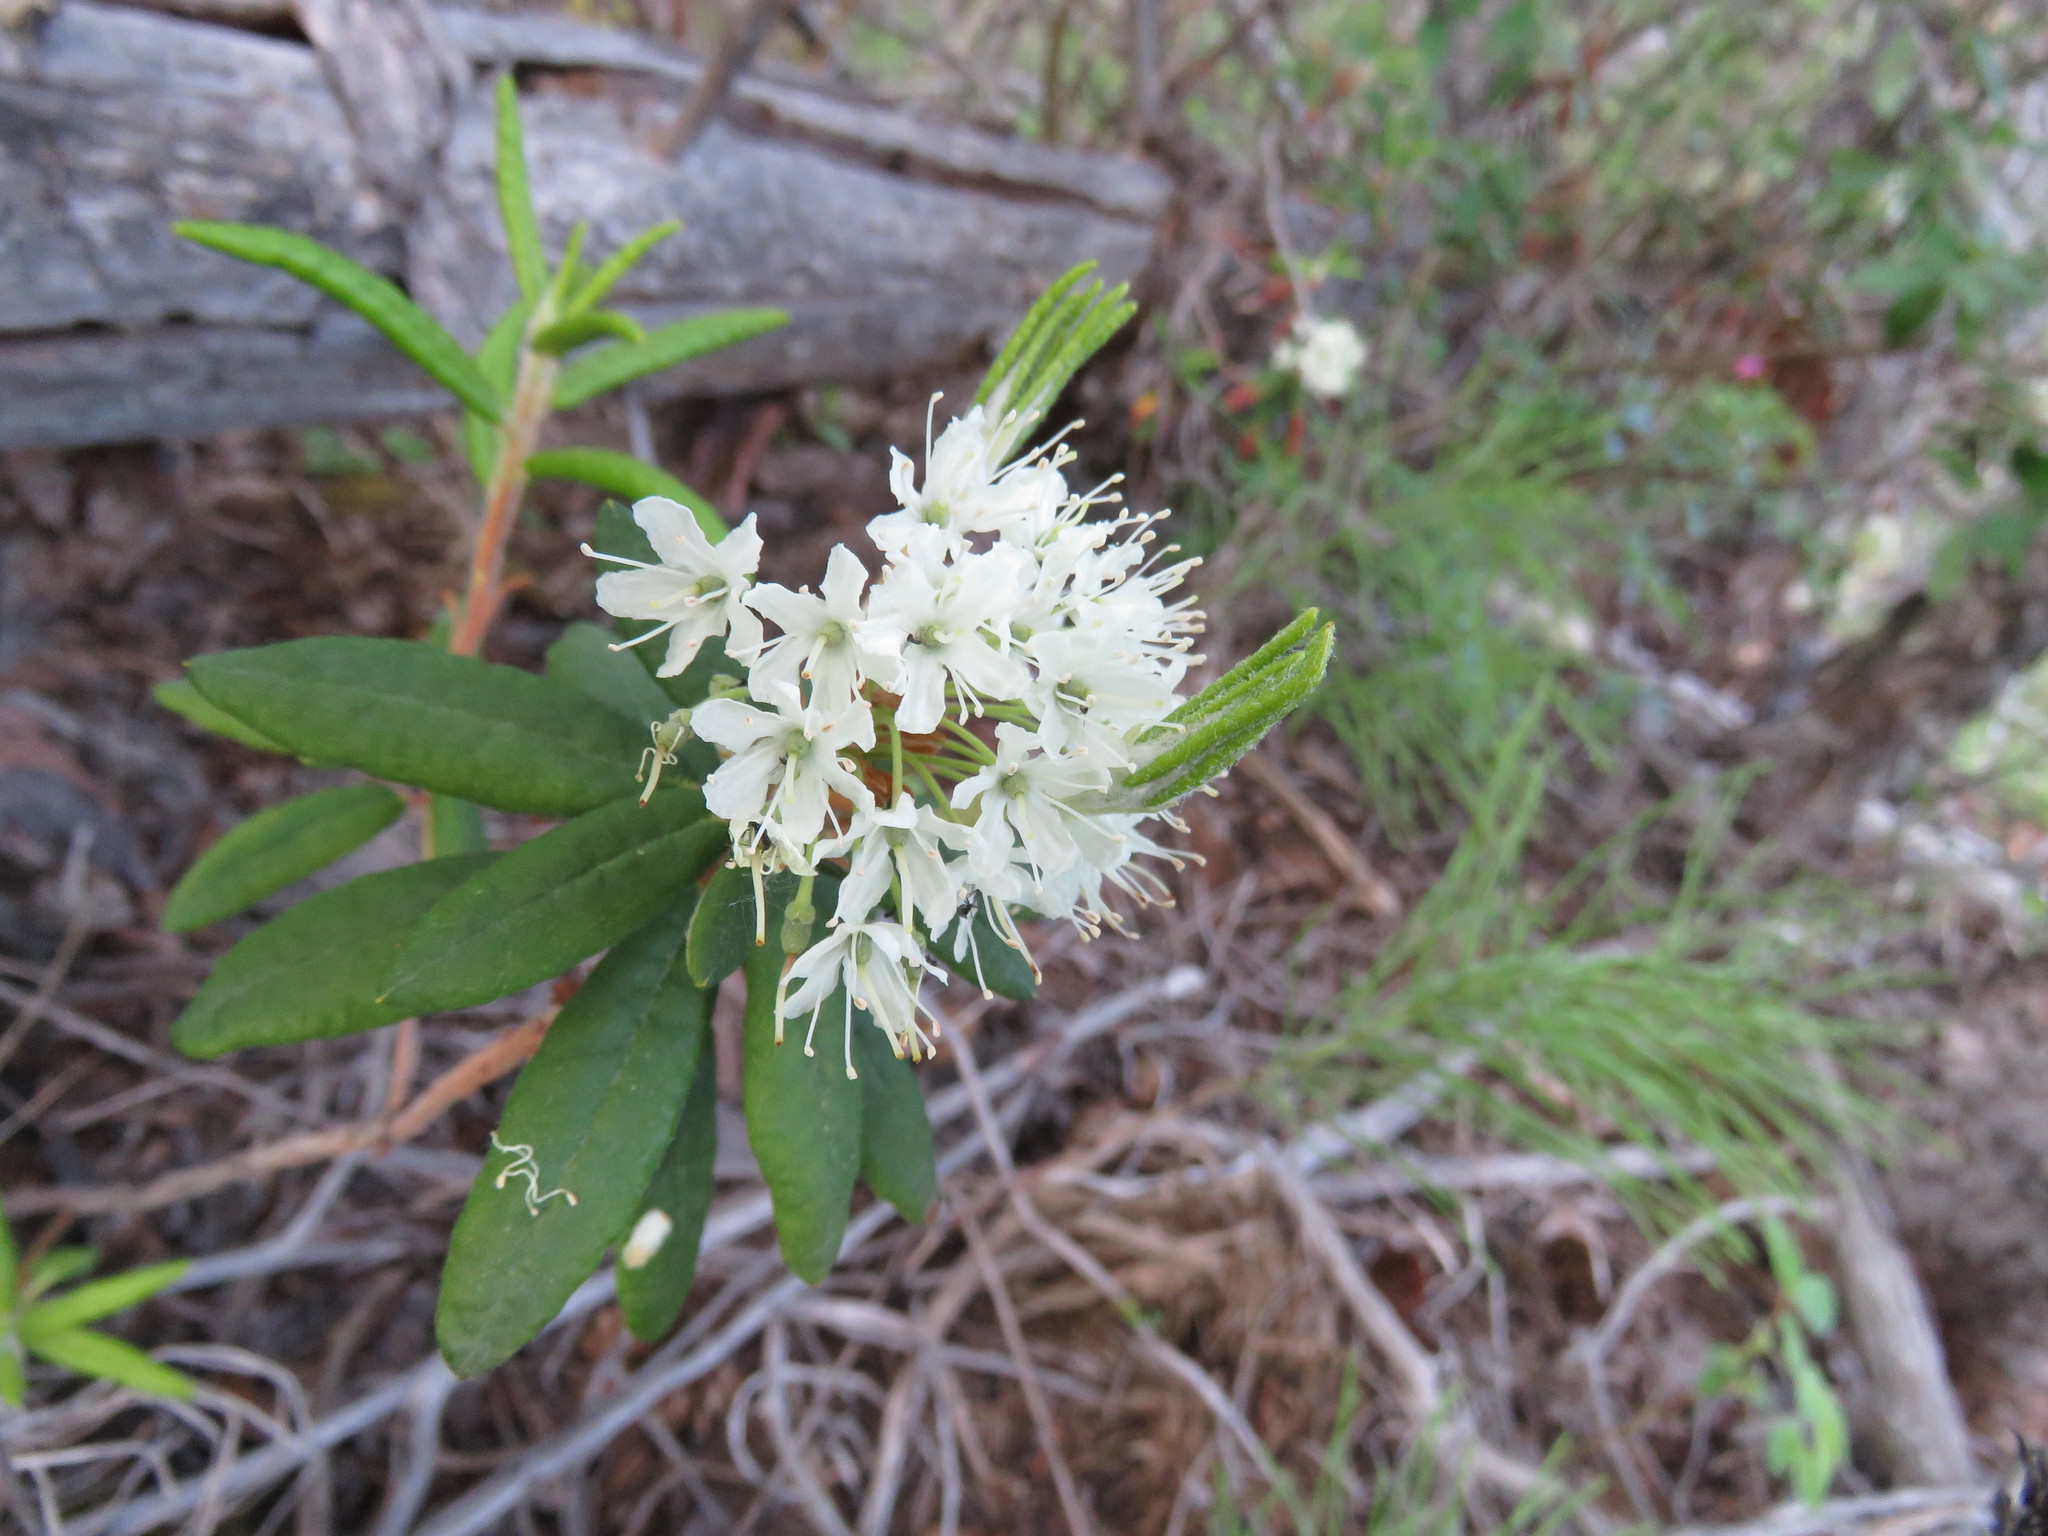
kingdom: Plantae
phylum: Tracheophyta
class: Magnoliopsida
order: Ericales
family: Ericaceae
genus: Rhododendron
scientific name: Rhododendron groenlandicum
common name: Bog labrador tea
